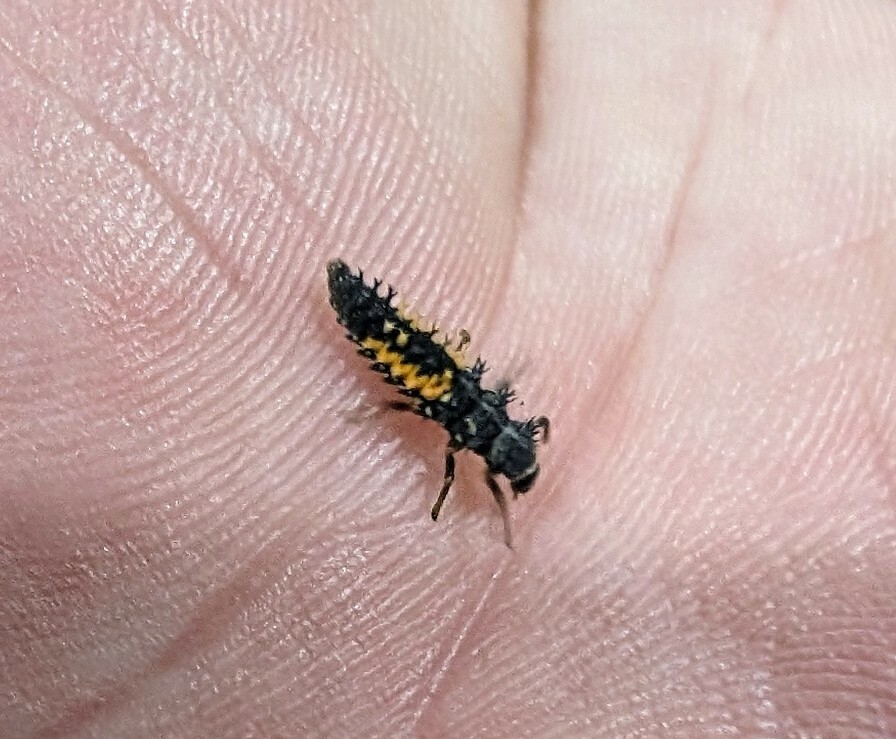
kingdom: Animalia
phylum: Arthropoda
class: Insecta
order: Coleoptera
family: Coccinellidae
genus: Harmonia
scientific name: Harmonia axyridis
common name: Harlequin ladybird
